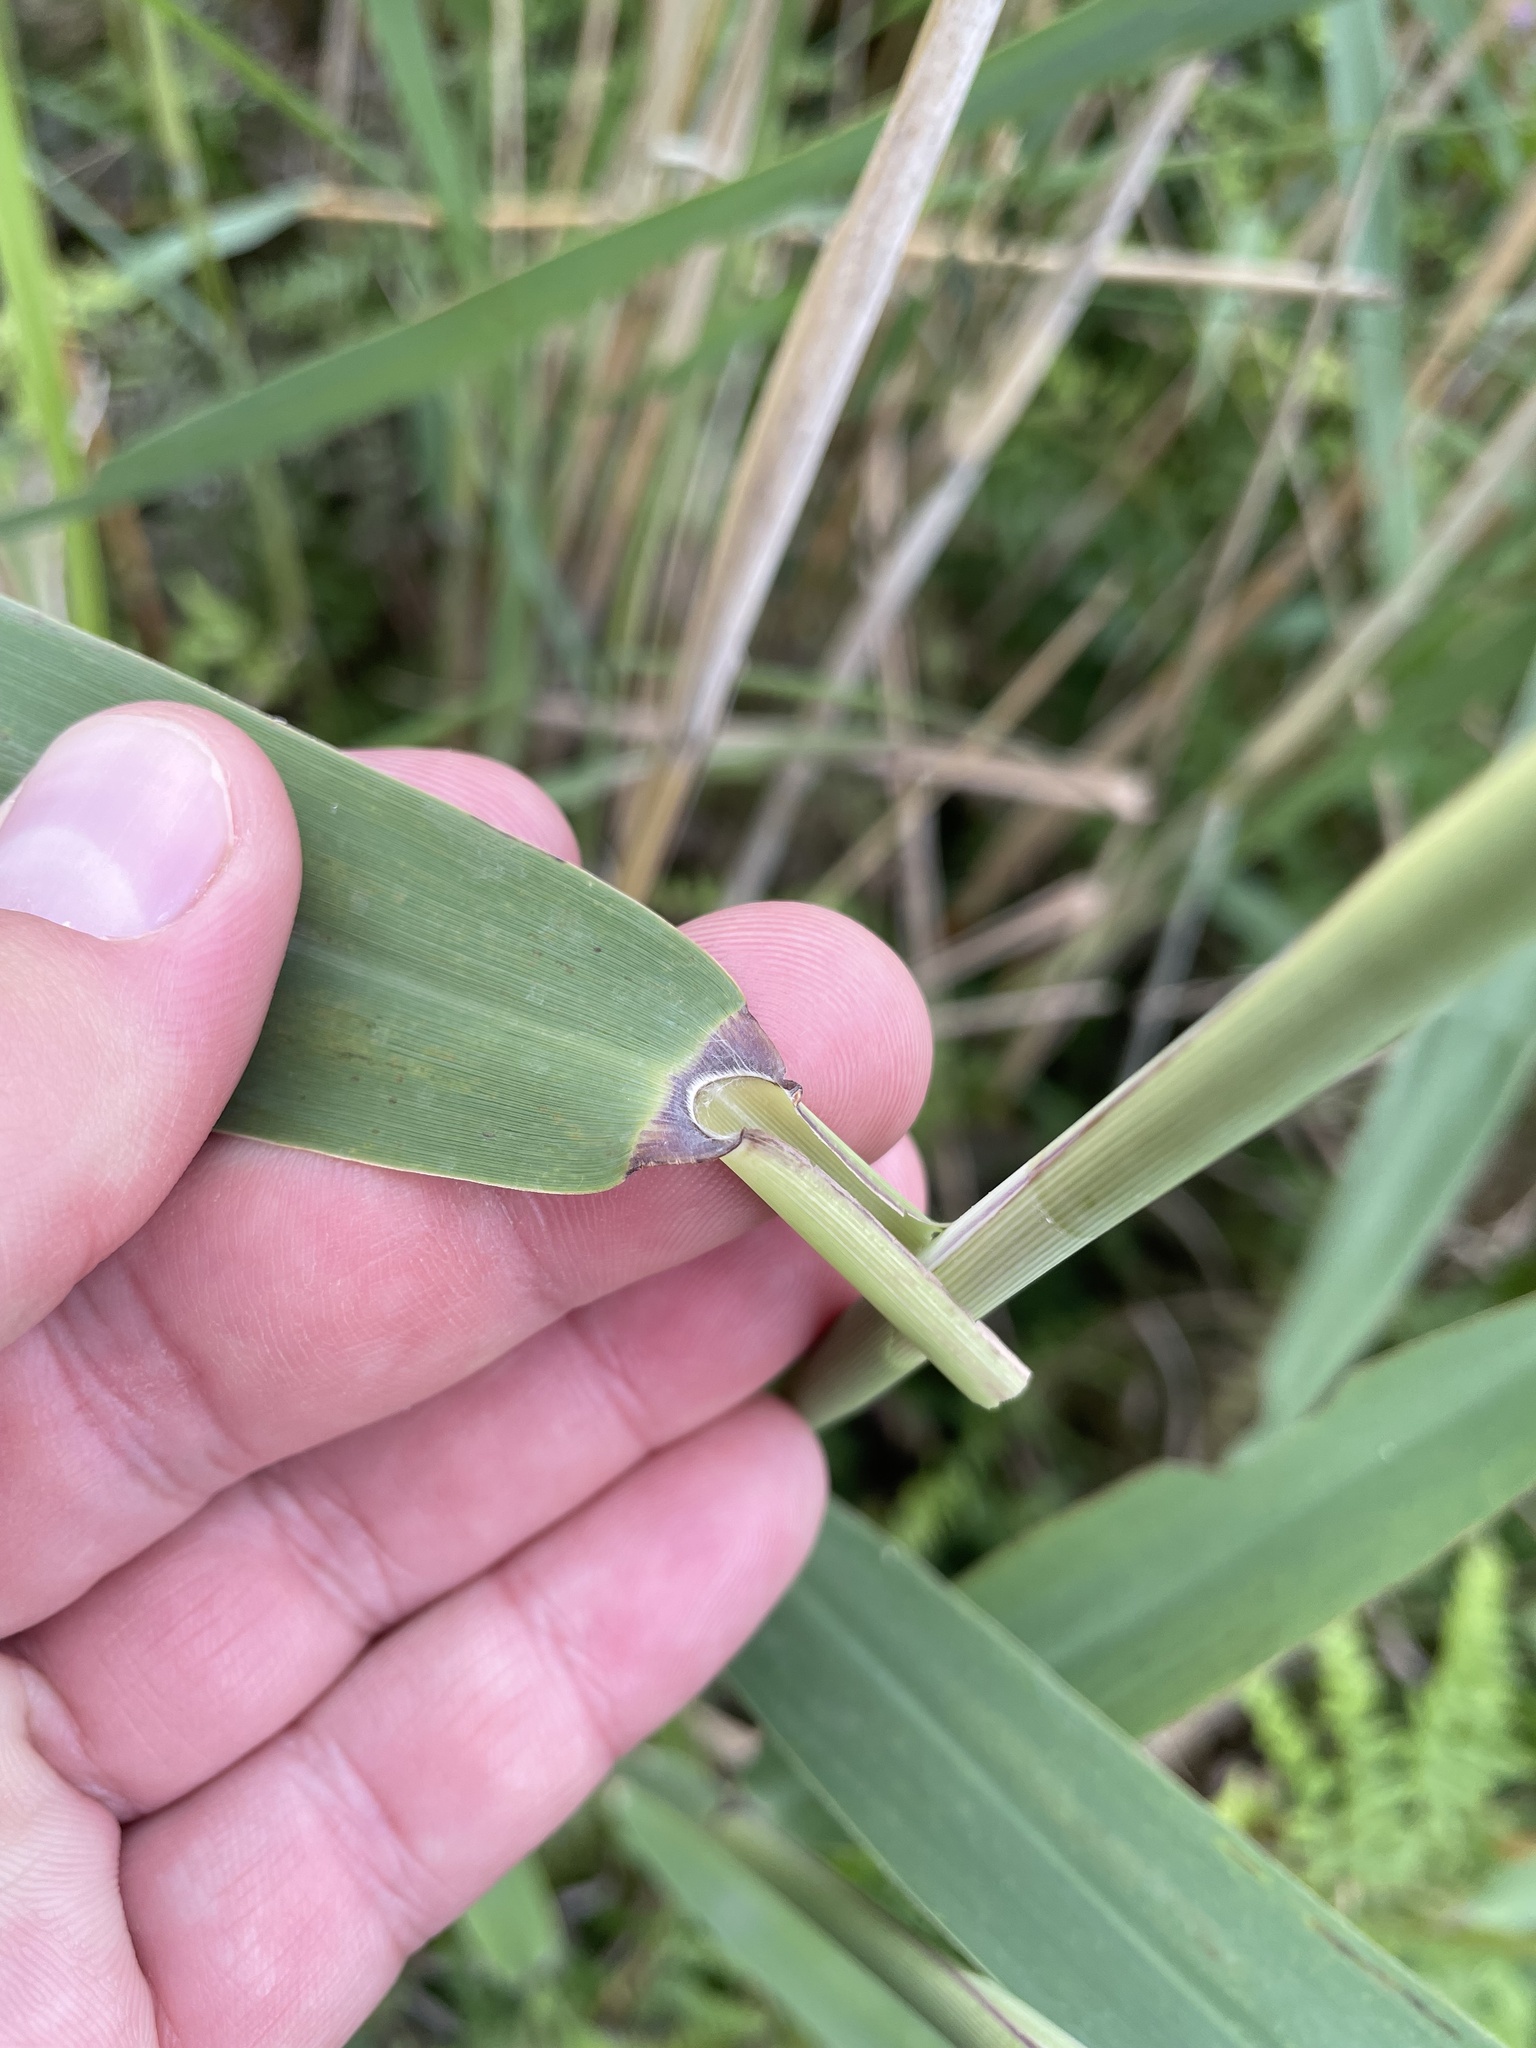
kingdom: Plantae
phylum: Tracheophyta
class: Liliopsida
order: Poales
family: Poaceae
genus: Phragmites
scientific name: Phragmites australis
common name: Common reed
